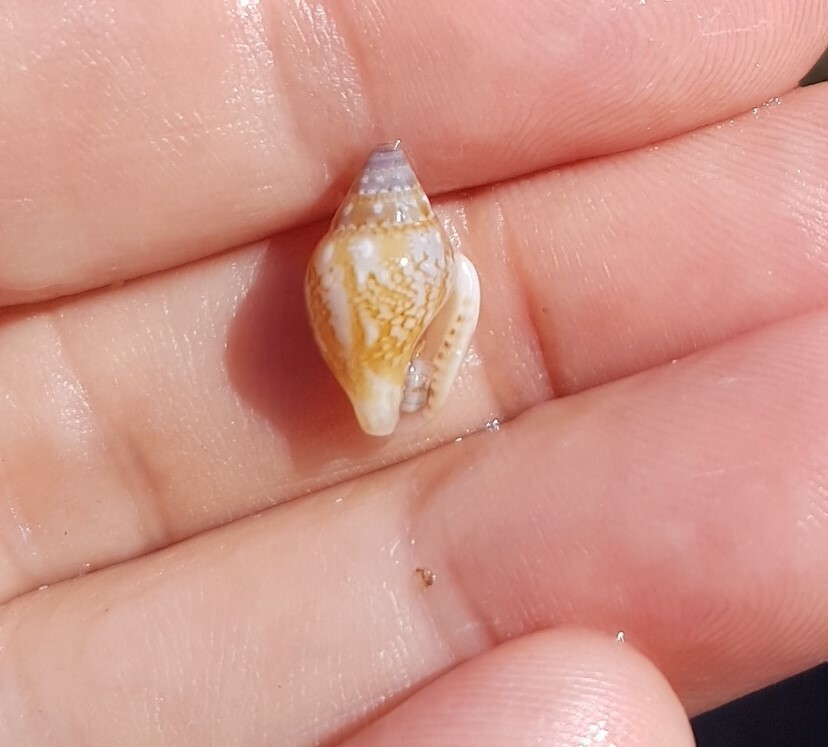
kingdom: Animalia
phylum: Mollusca
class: Gastropoda
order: Neogastropoda
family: Columbellidae
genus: Columbella
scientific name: Columbella rustica
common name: Rustic dove shell
